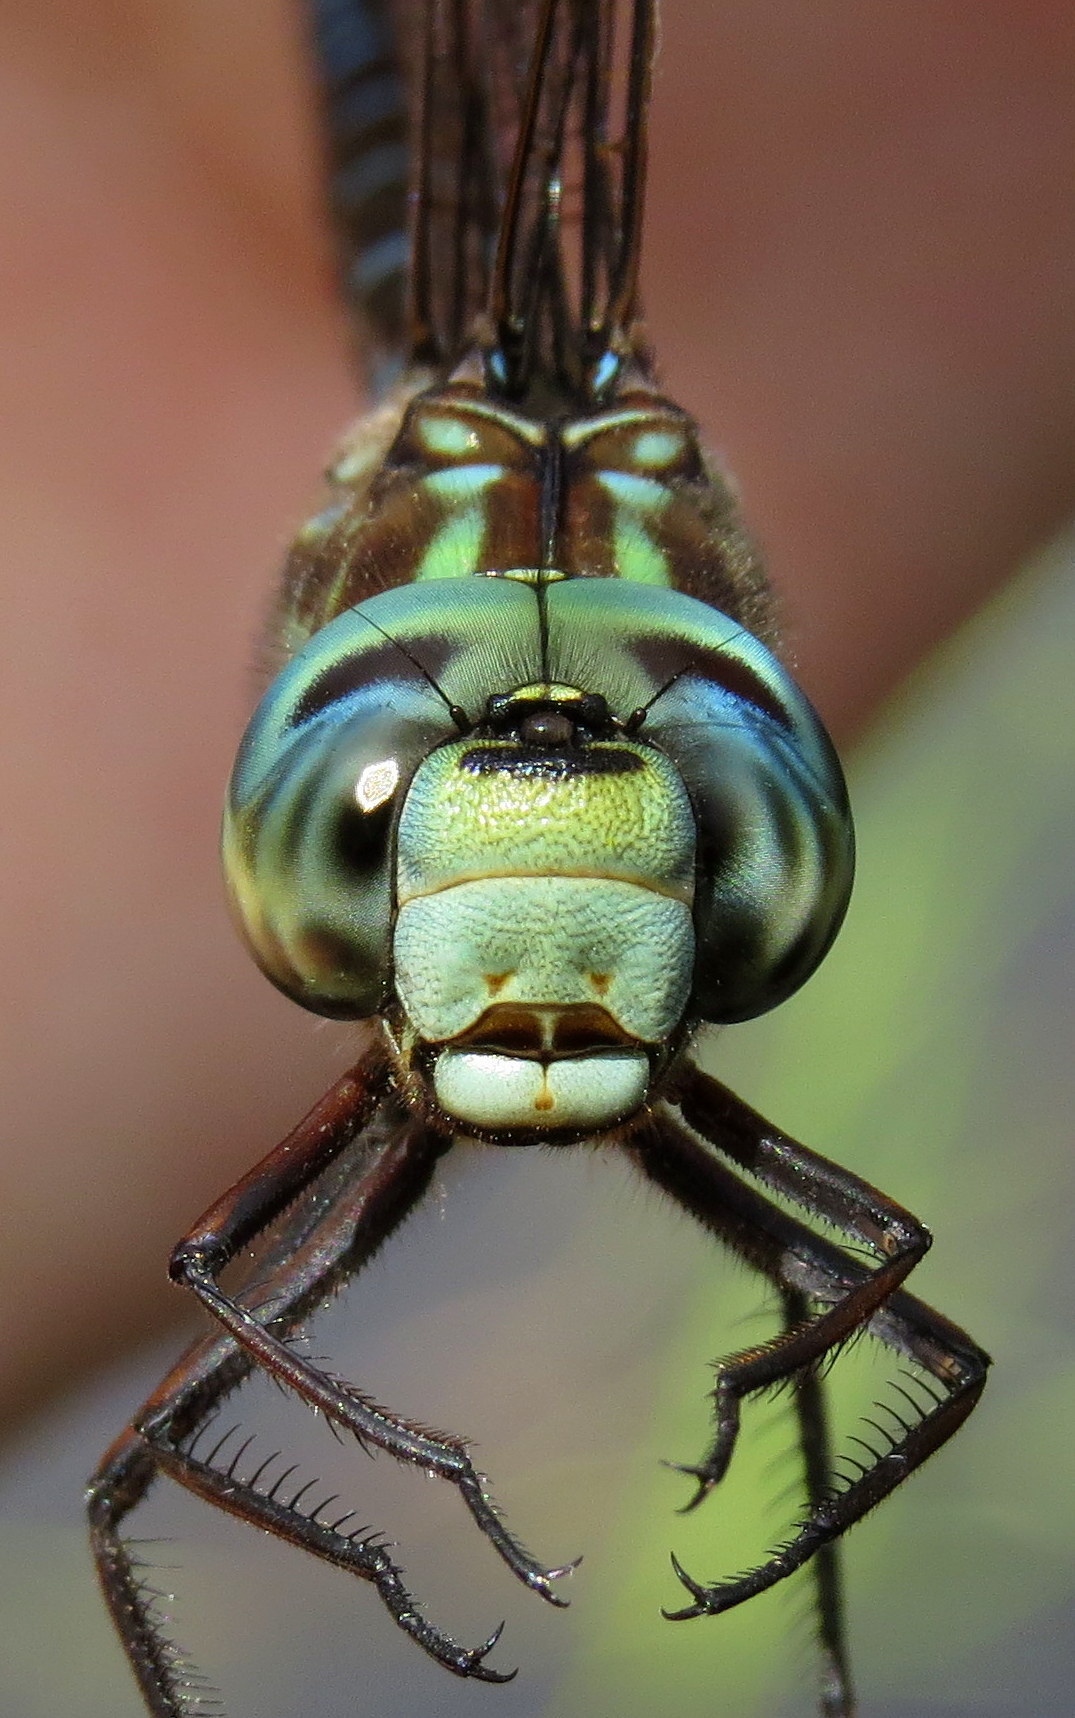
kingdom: Animalia
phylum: Arthropoda
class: Insecta
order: Odonata
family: Aeshnidae
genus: Aeshna
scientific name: Aeshna canadensis
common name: Canada darner
